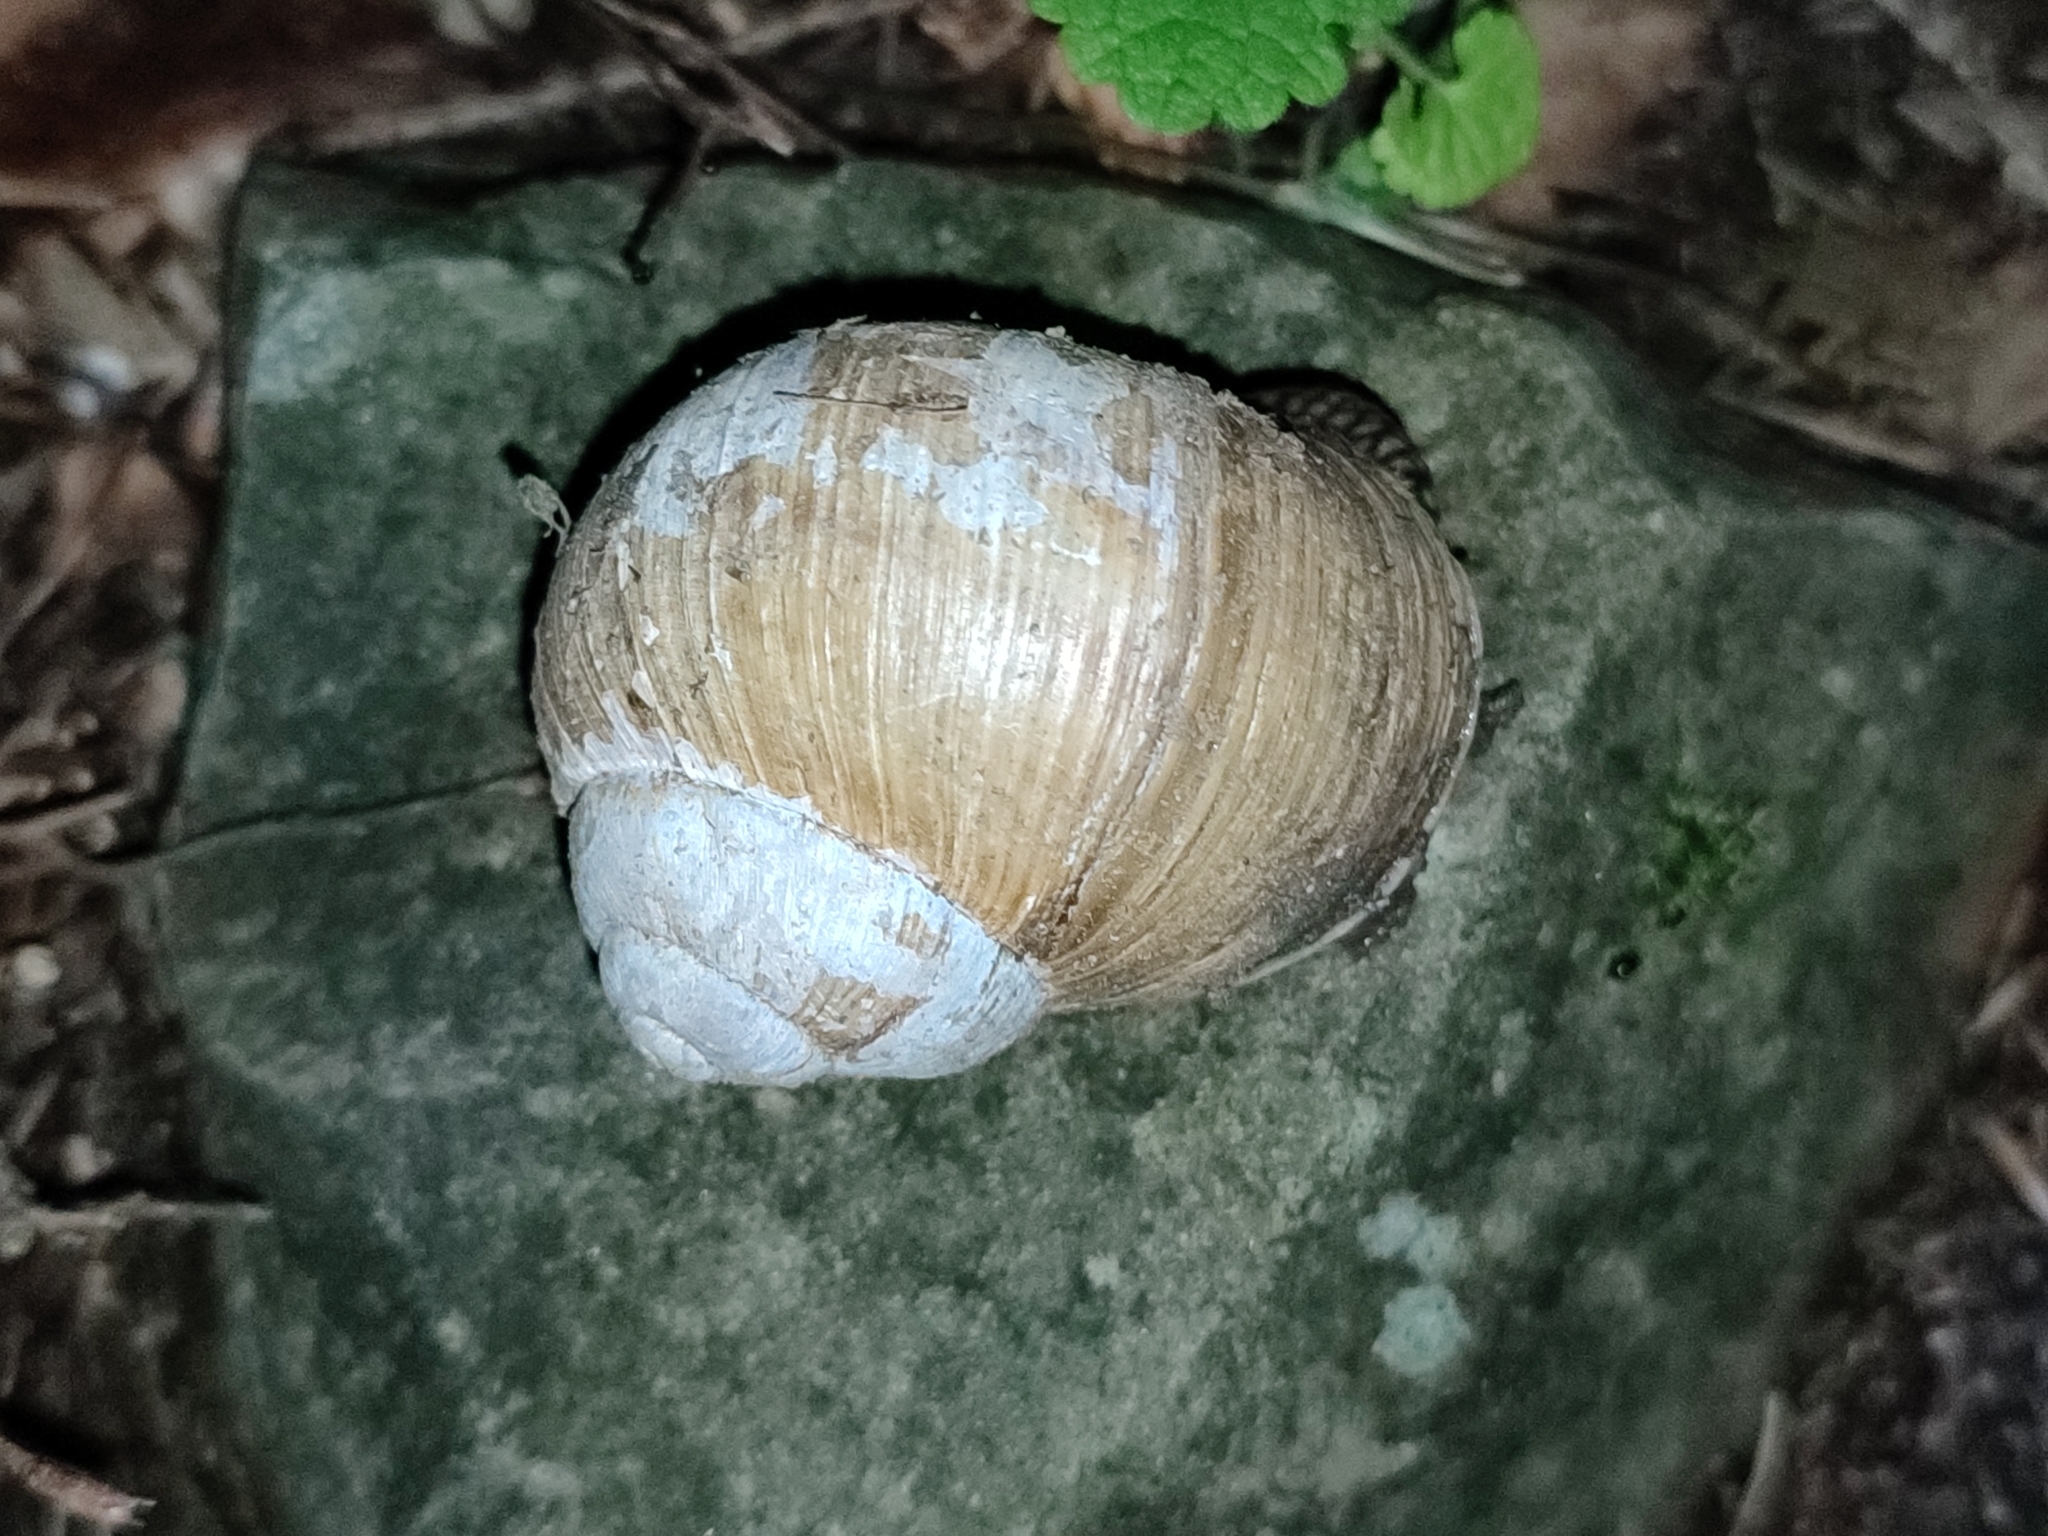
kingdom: Animalia
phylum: Mollusca
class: Gastropoda
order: Stylommatophora
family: Helicidae
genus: Helix
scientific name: Helix pomatia
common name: Roman snail
